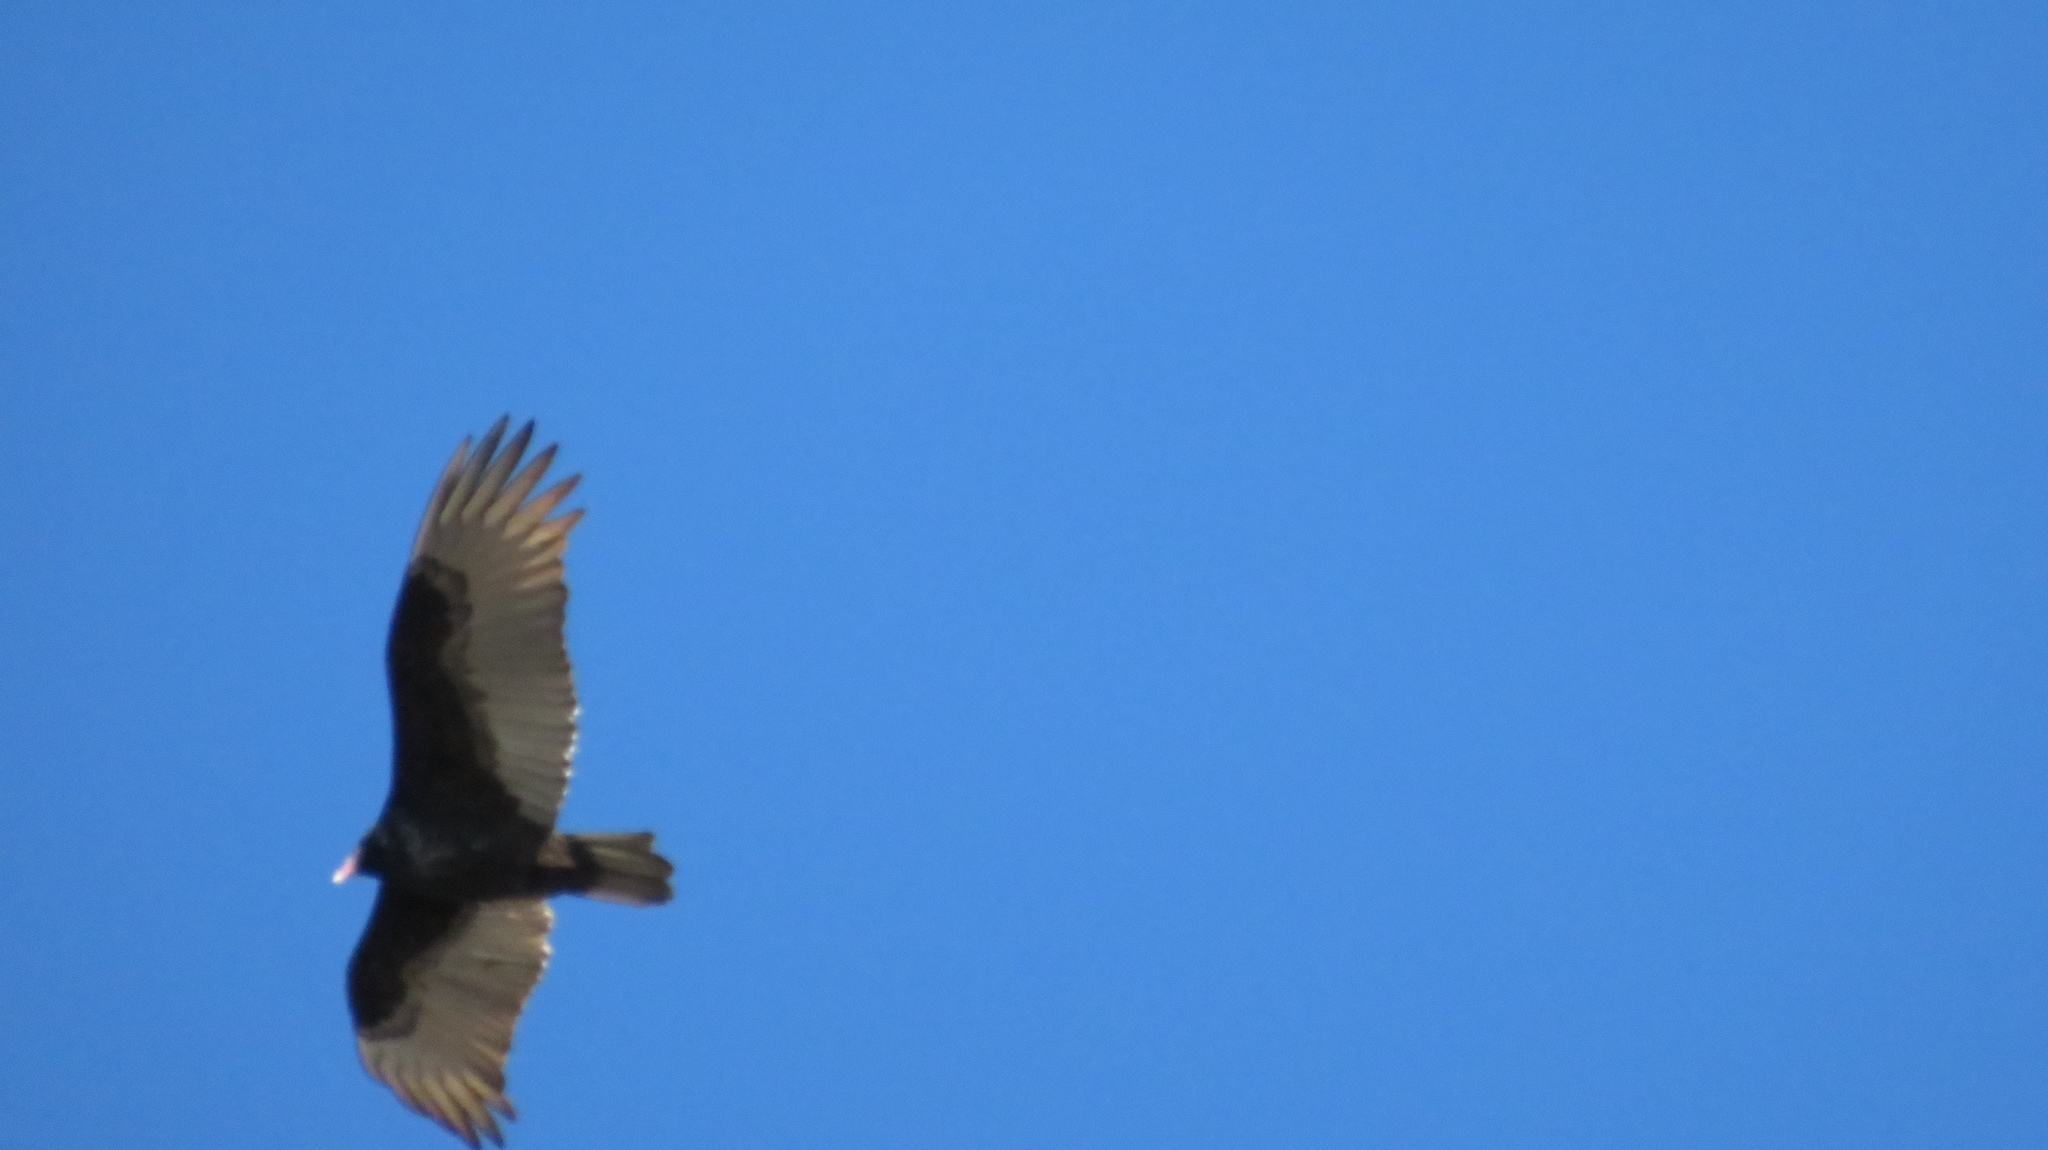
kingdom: Animalia
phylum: Chordata
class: Aves
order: Accipitriformes
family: Cathartidae
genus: Cathartes
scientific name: Cathartes aura
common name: Turkey vulture
